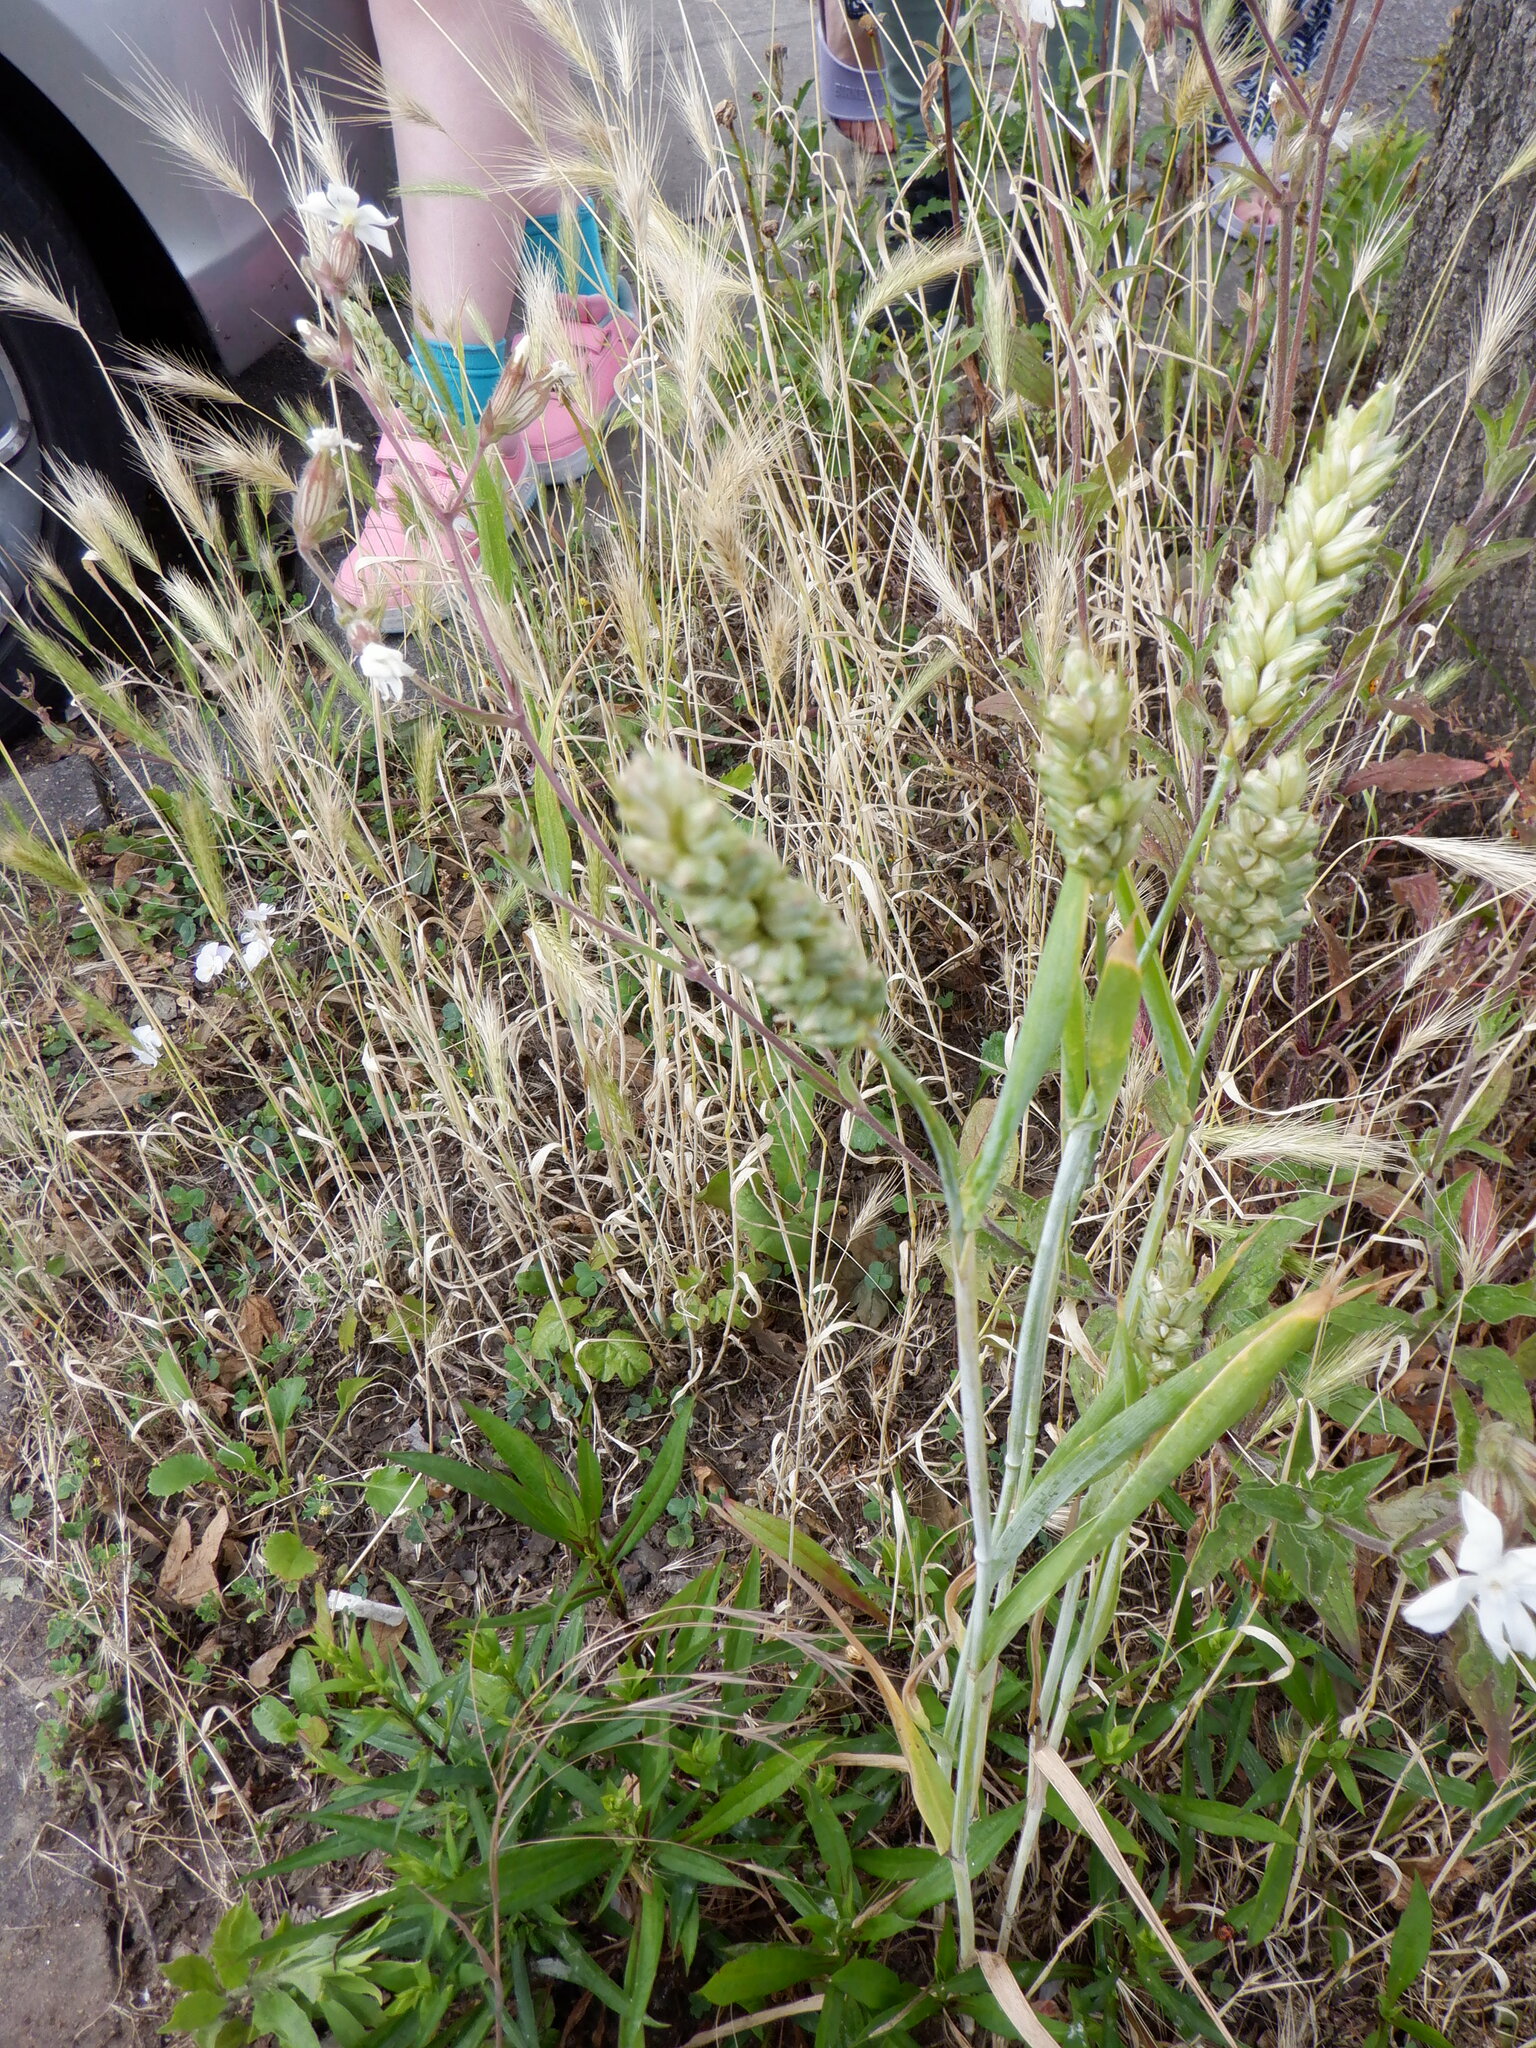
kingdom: Plantae
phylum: Tracheophyta
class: Liliopsida
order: Poales
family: Poaceae
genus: Triticum
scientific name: Triticum aestivum
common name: Common wheat
